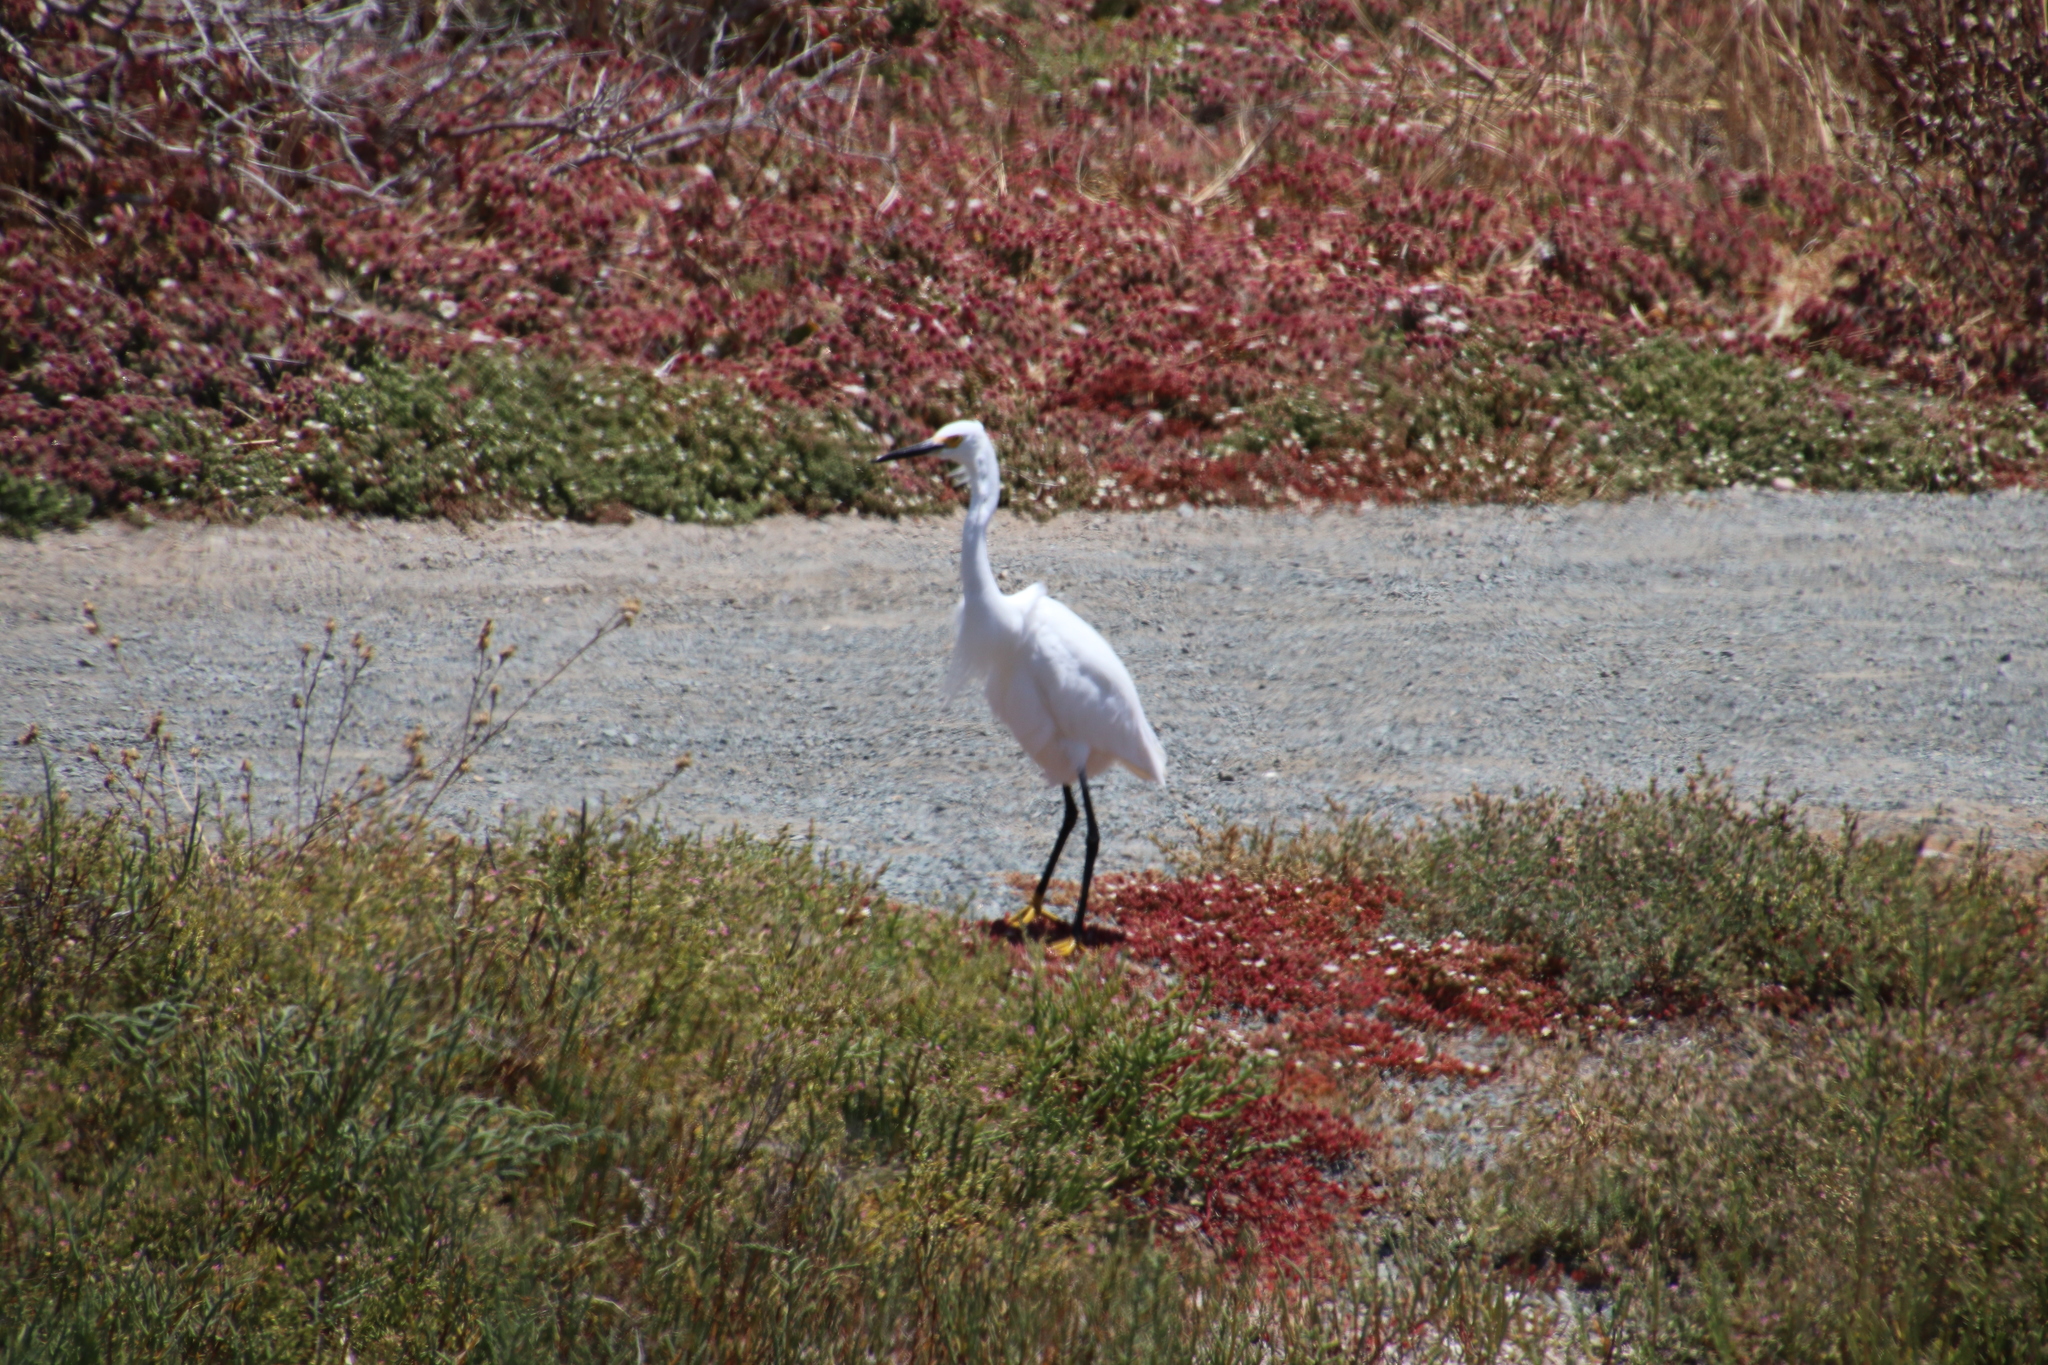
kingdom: Animalia
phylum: Chordata
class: Aves
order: Pelecaniformes
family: Ardeidae
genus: Egretta
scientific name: Egretta thula
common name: Snowy egret
